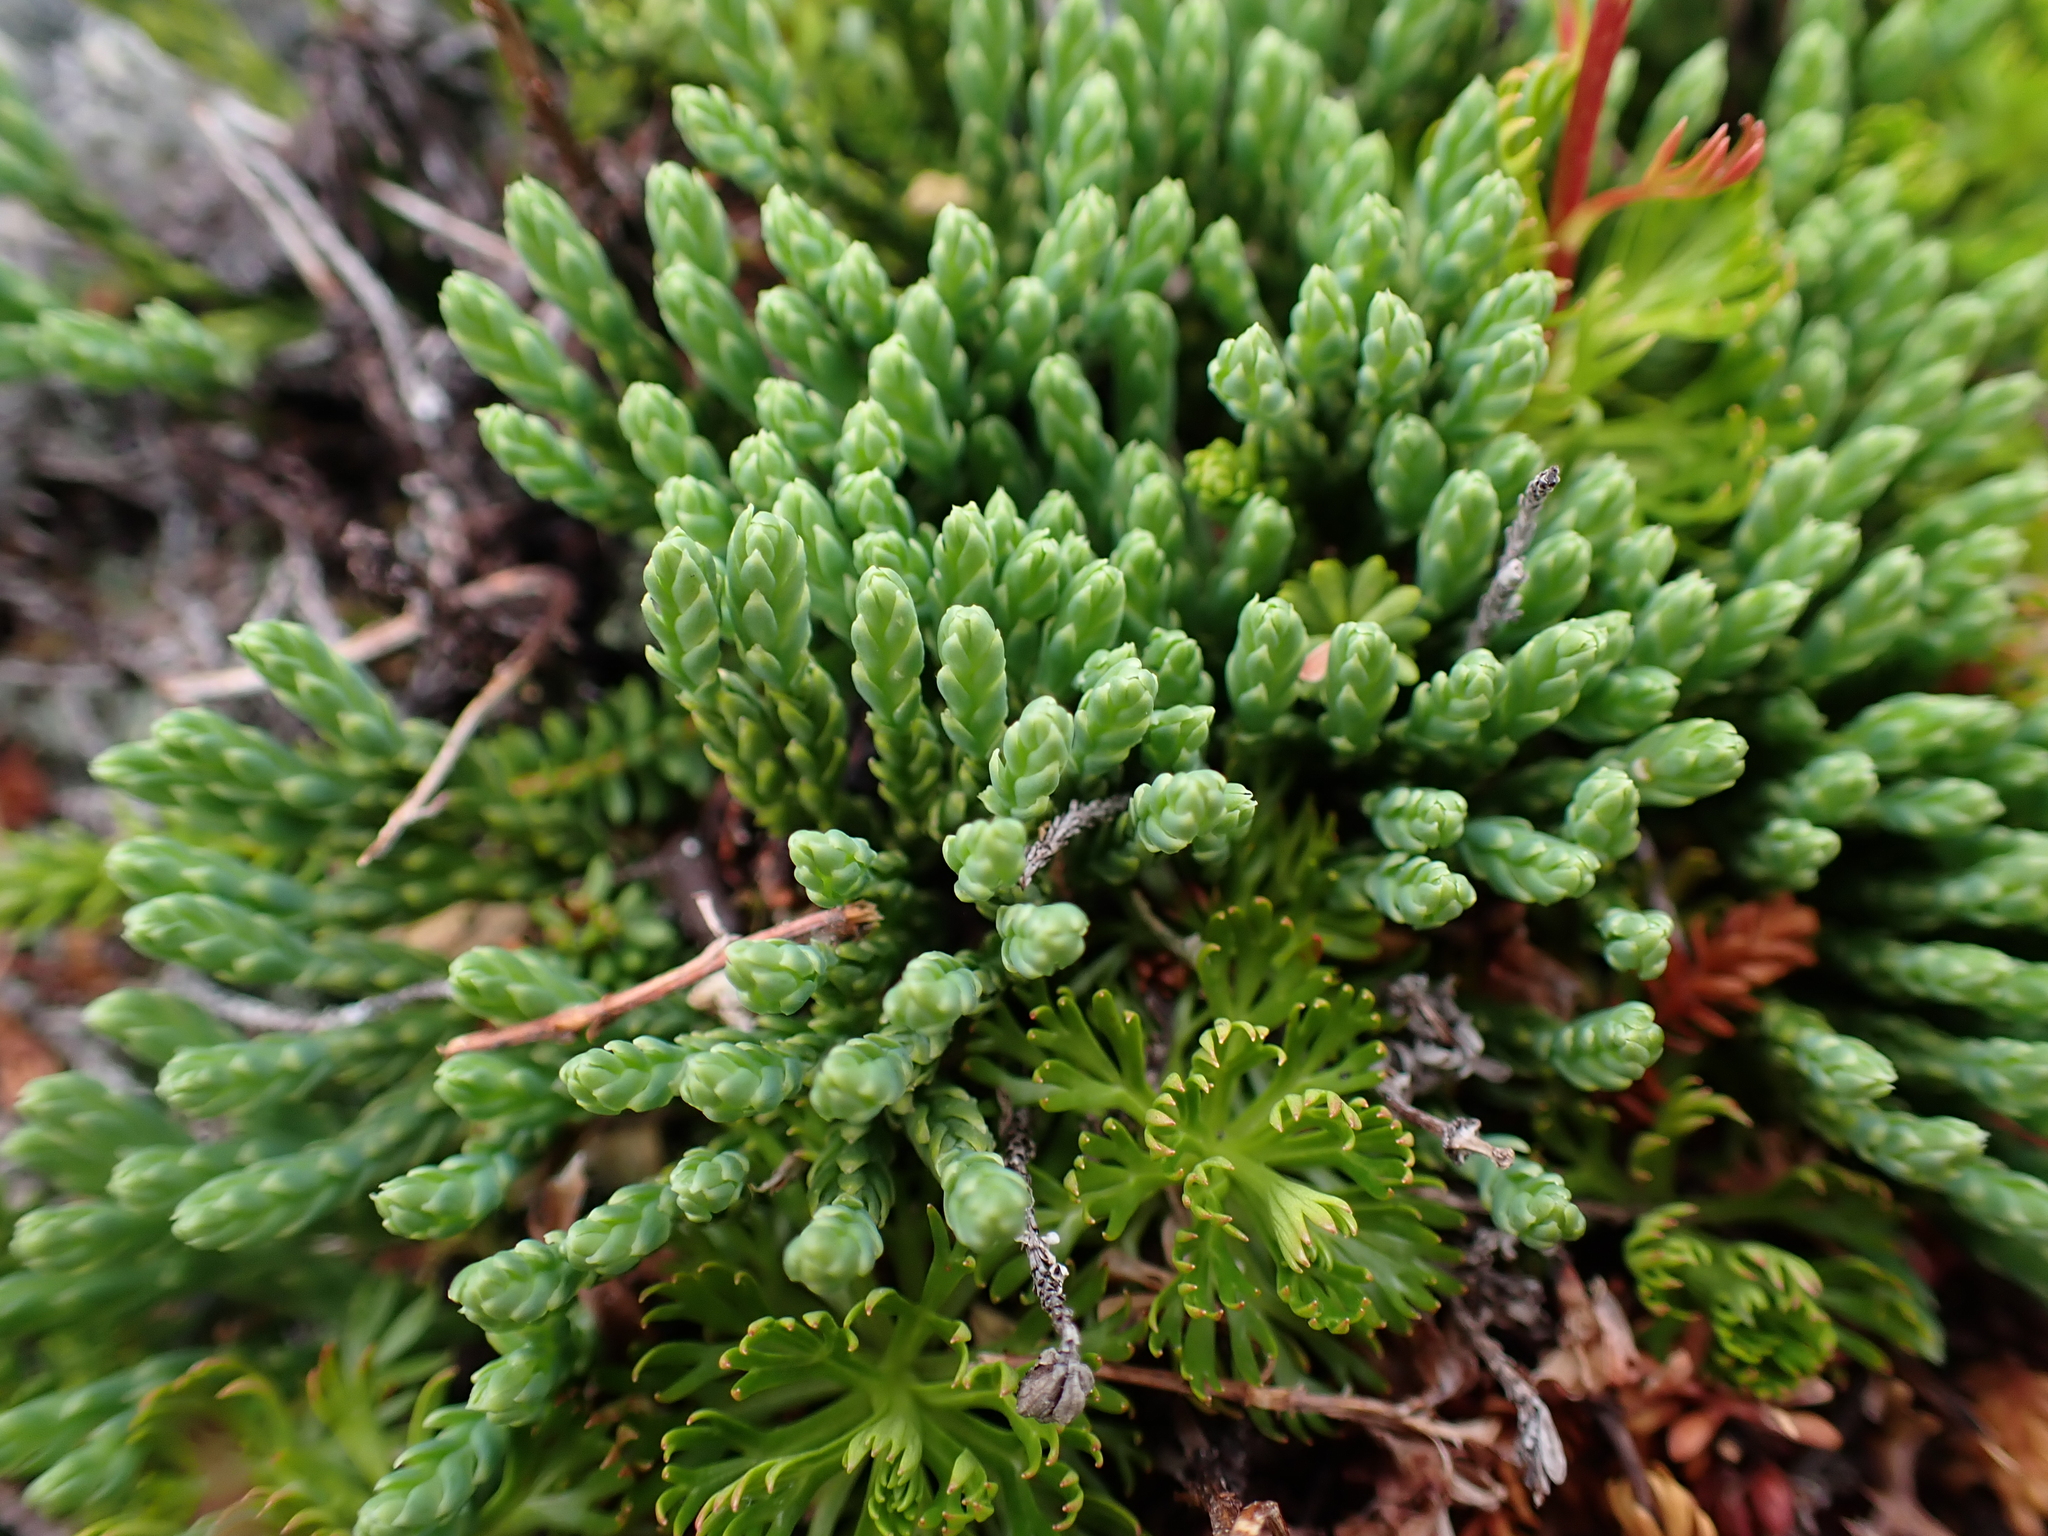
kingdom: Plantae
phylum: Tracheophyta
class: Lycopodiopsida
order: Lycopodiales
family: Lycopodiaceae
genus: Diphasiastrum
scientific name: Diphasiastrum alpinum
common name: Alpine clubmoss
